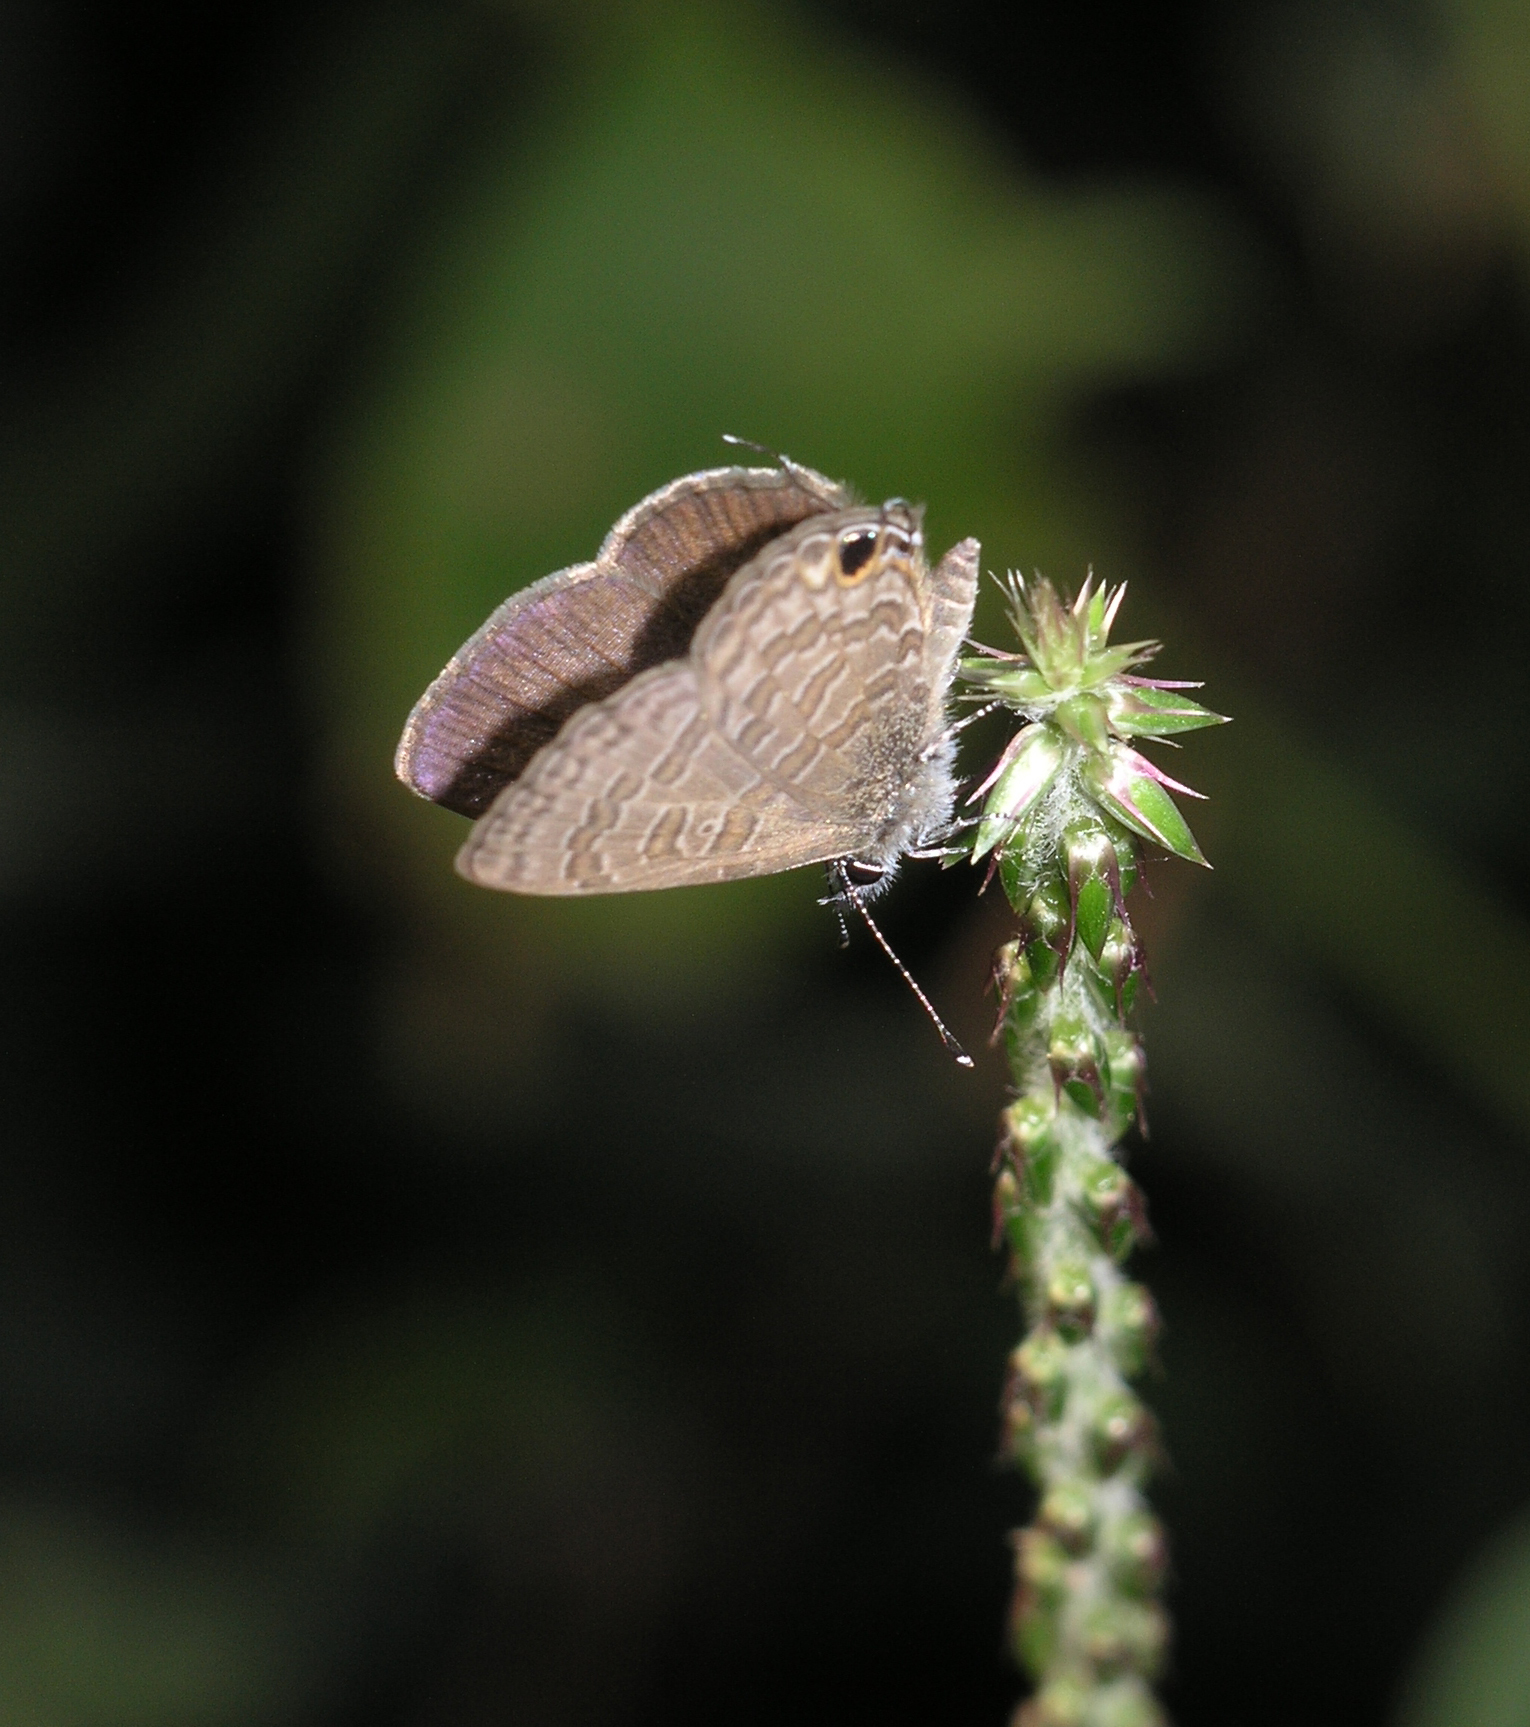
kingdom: Animalia
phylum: Arthropoda
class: Insecta
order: Lepidoptera
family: Lycaenidae
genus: Prosotas
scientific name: Prosotas nora
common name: Common line blue
